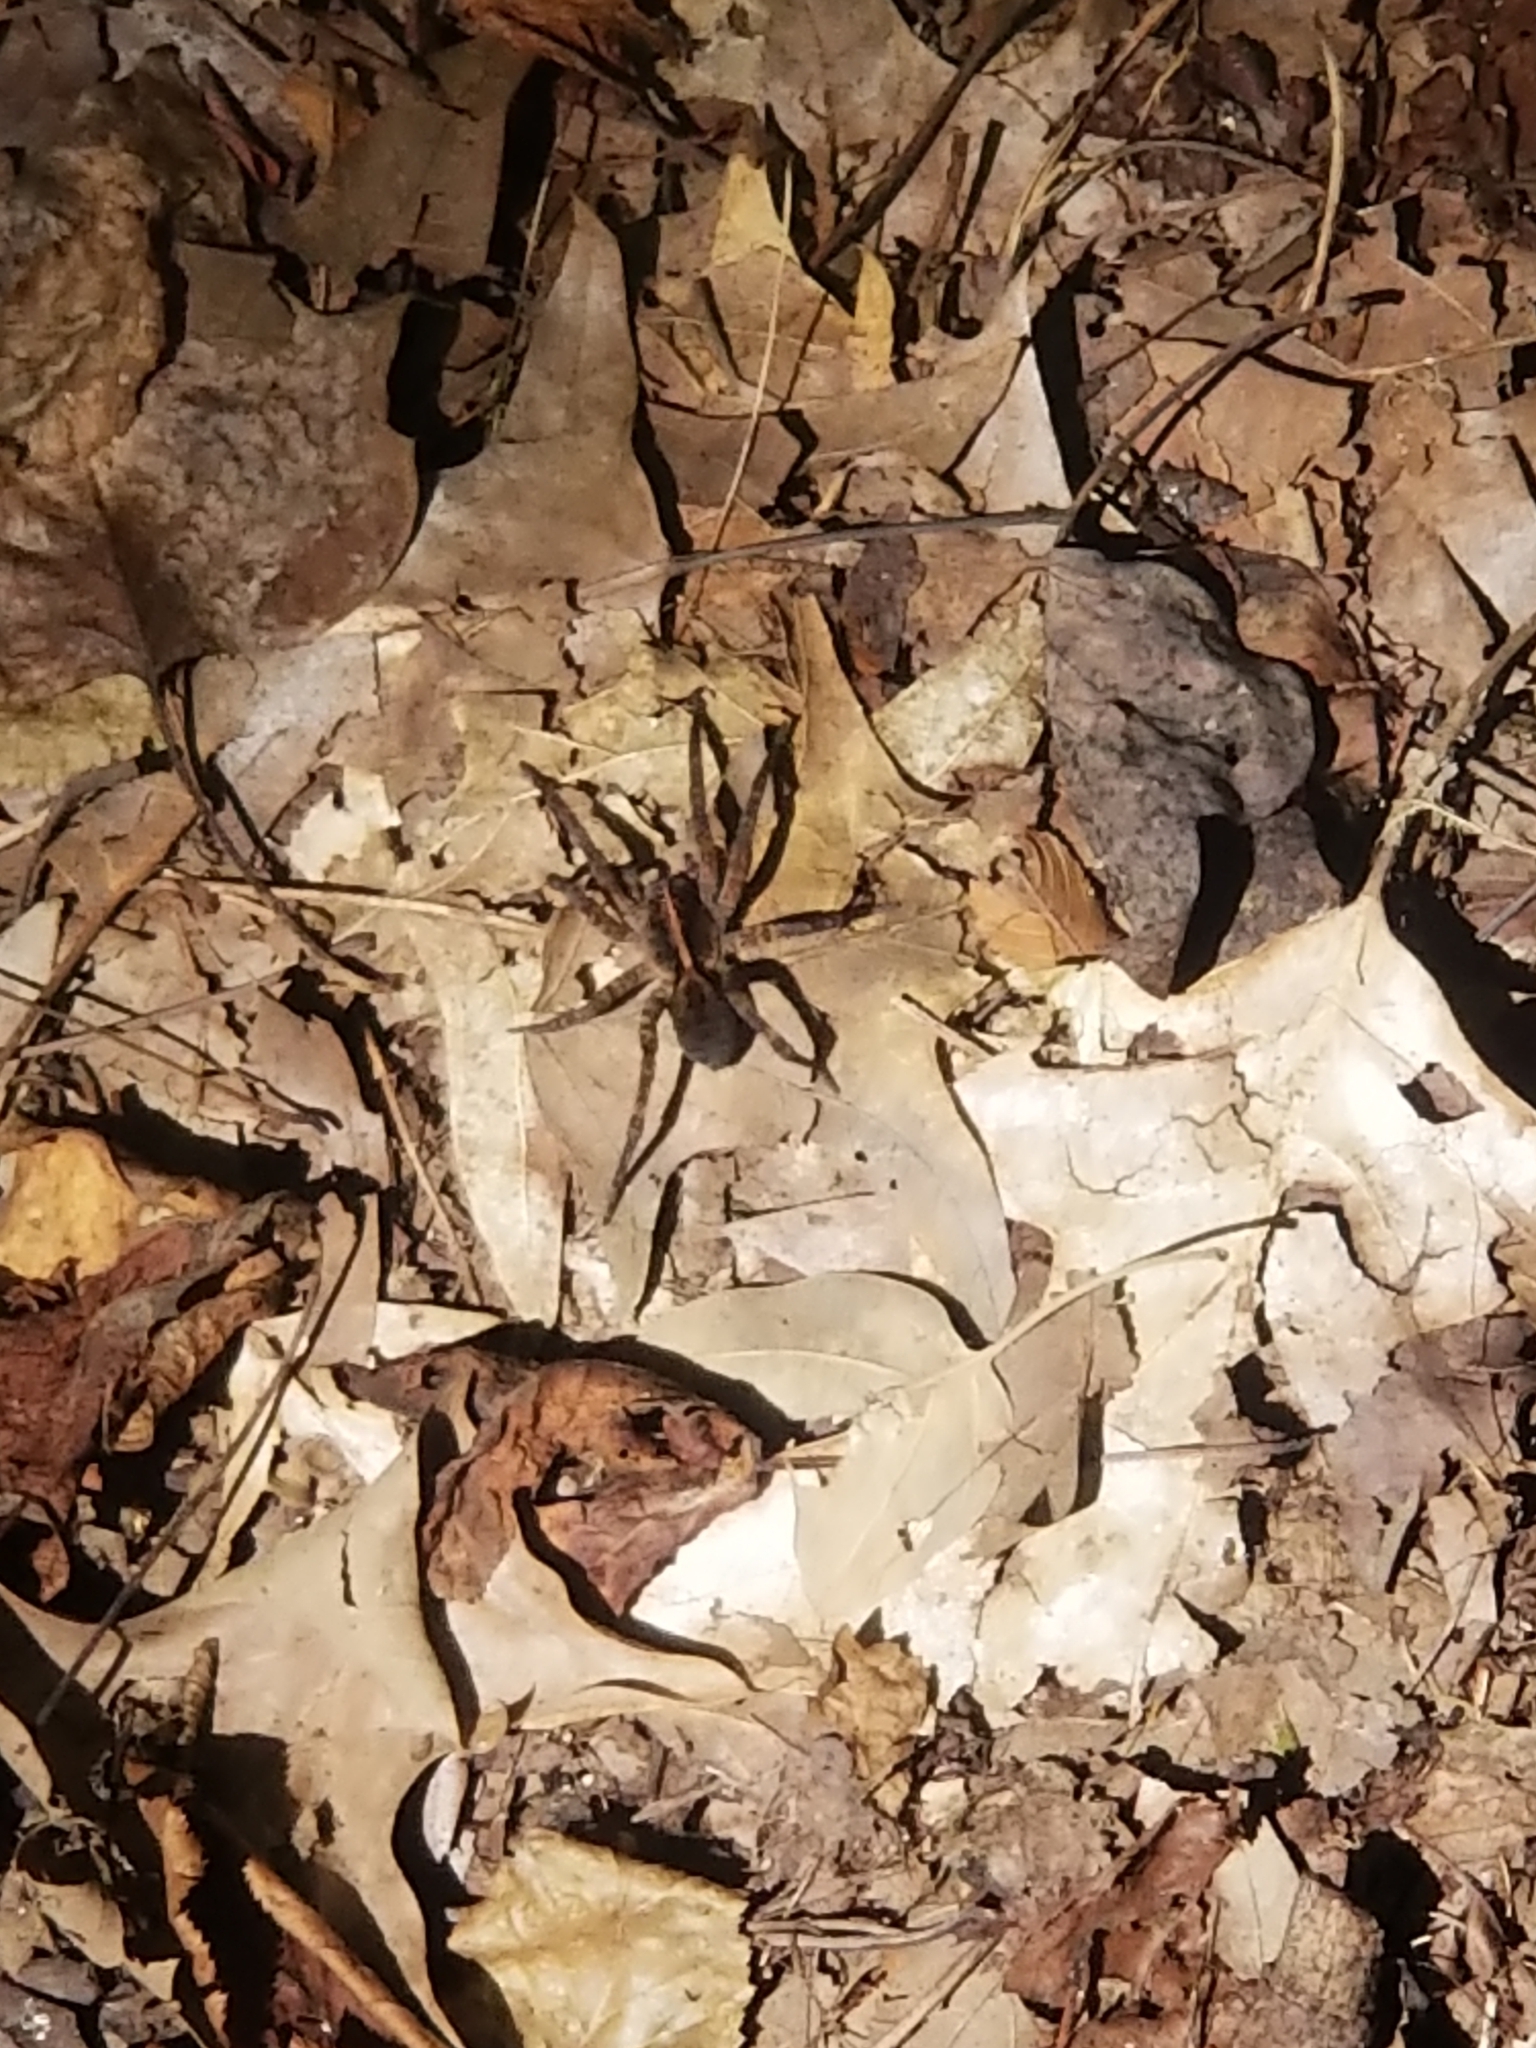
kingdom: Animalia
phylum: Arthropoda
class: Arachnida
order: Araneae
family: Lycosidae
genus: Tigrosa
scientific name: Tigrosa georgicola
